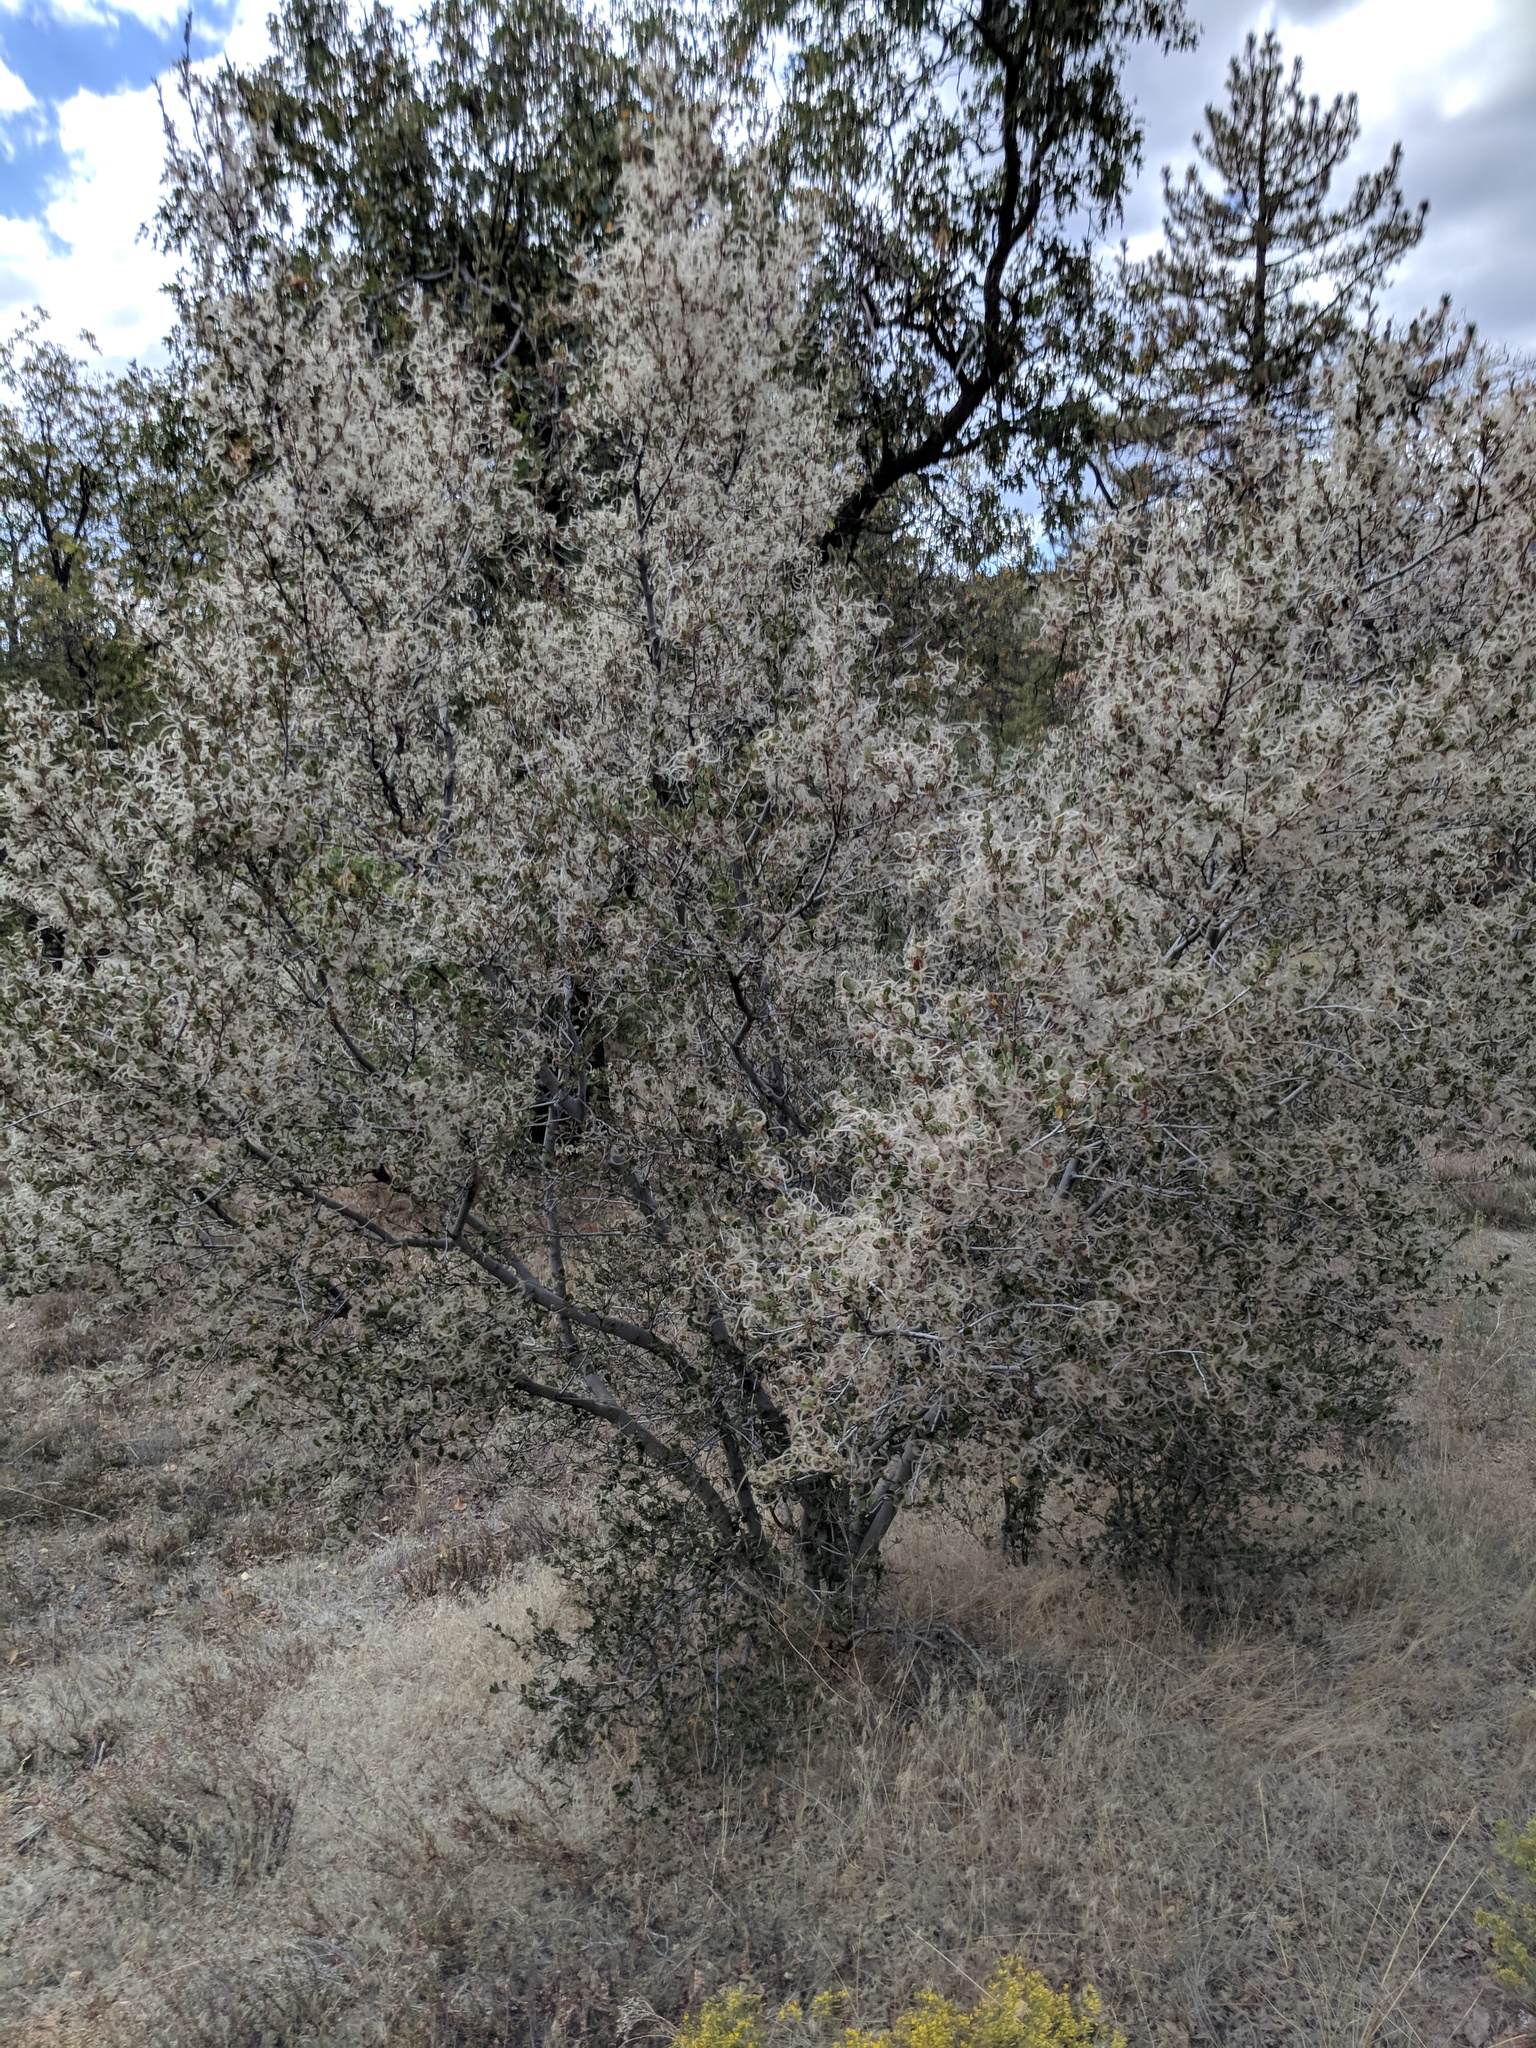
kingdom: Plantae
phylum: Tracheophyta
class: Magnoliopsida
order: Rosales
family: Rosaceae
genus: Cercocarpus
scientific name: Cercocarpus betuloides
